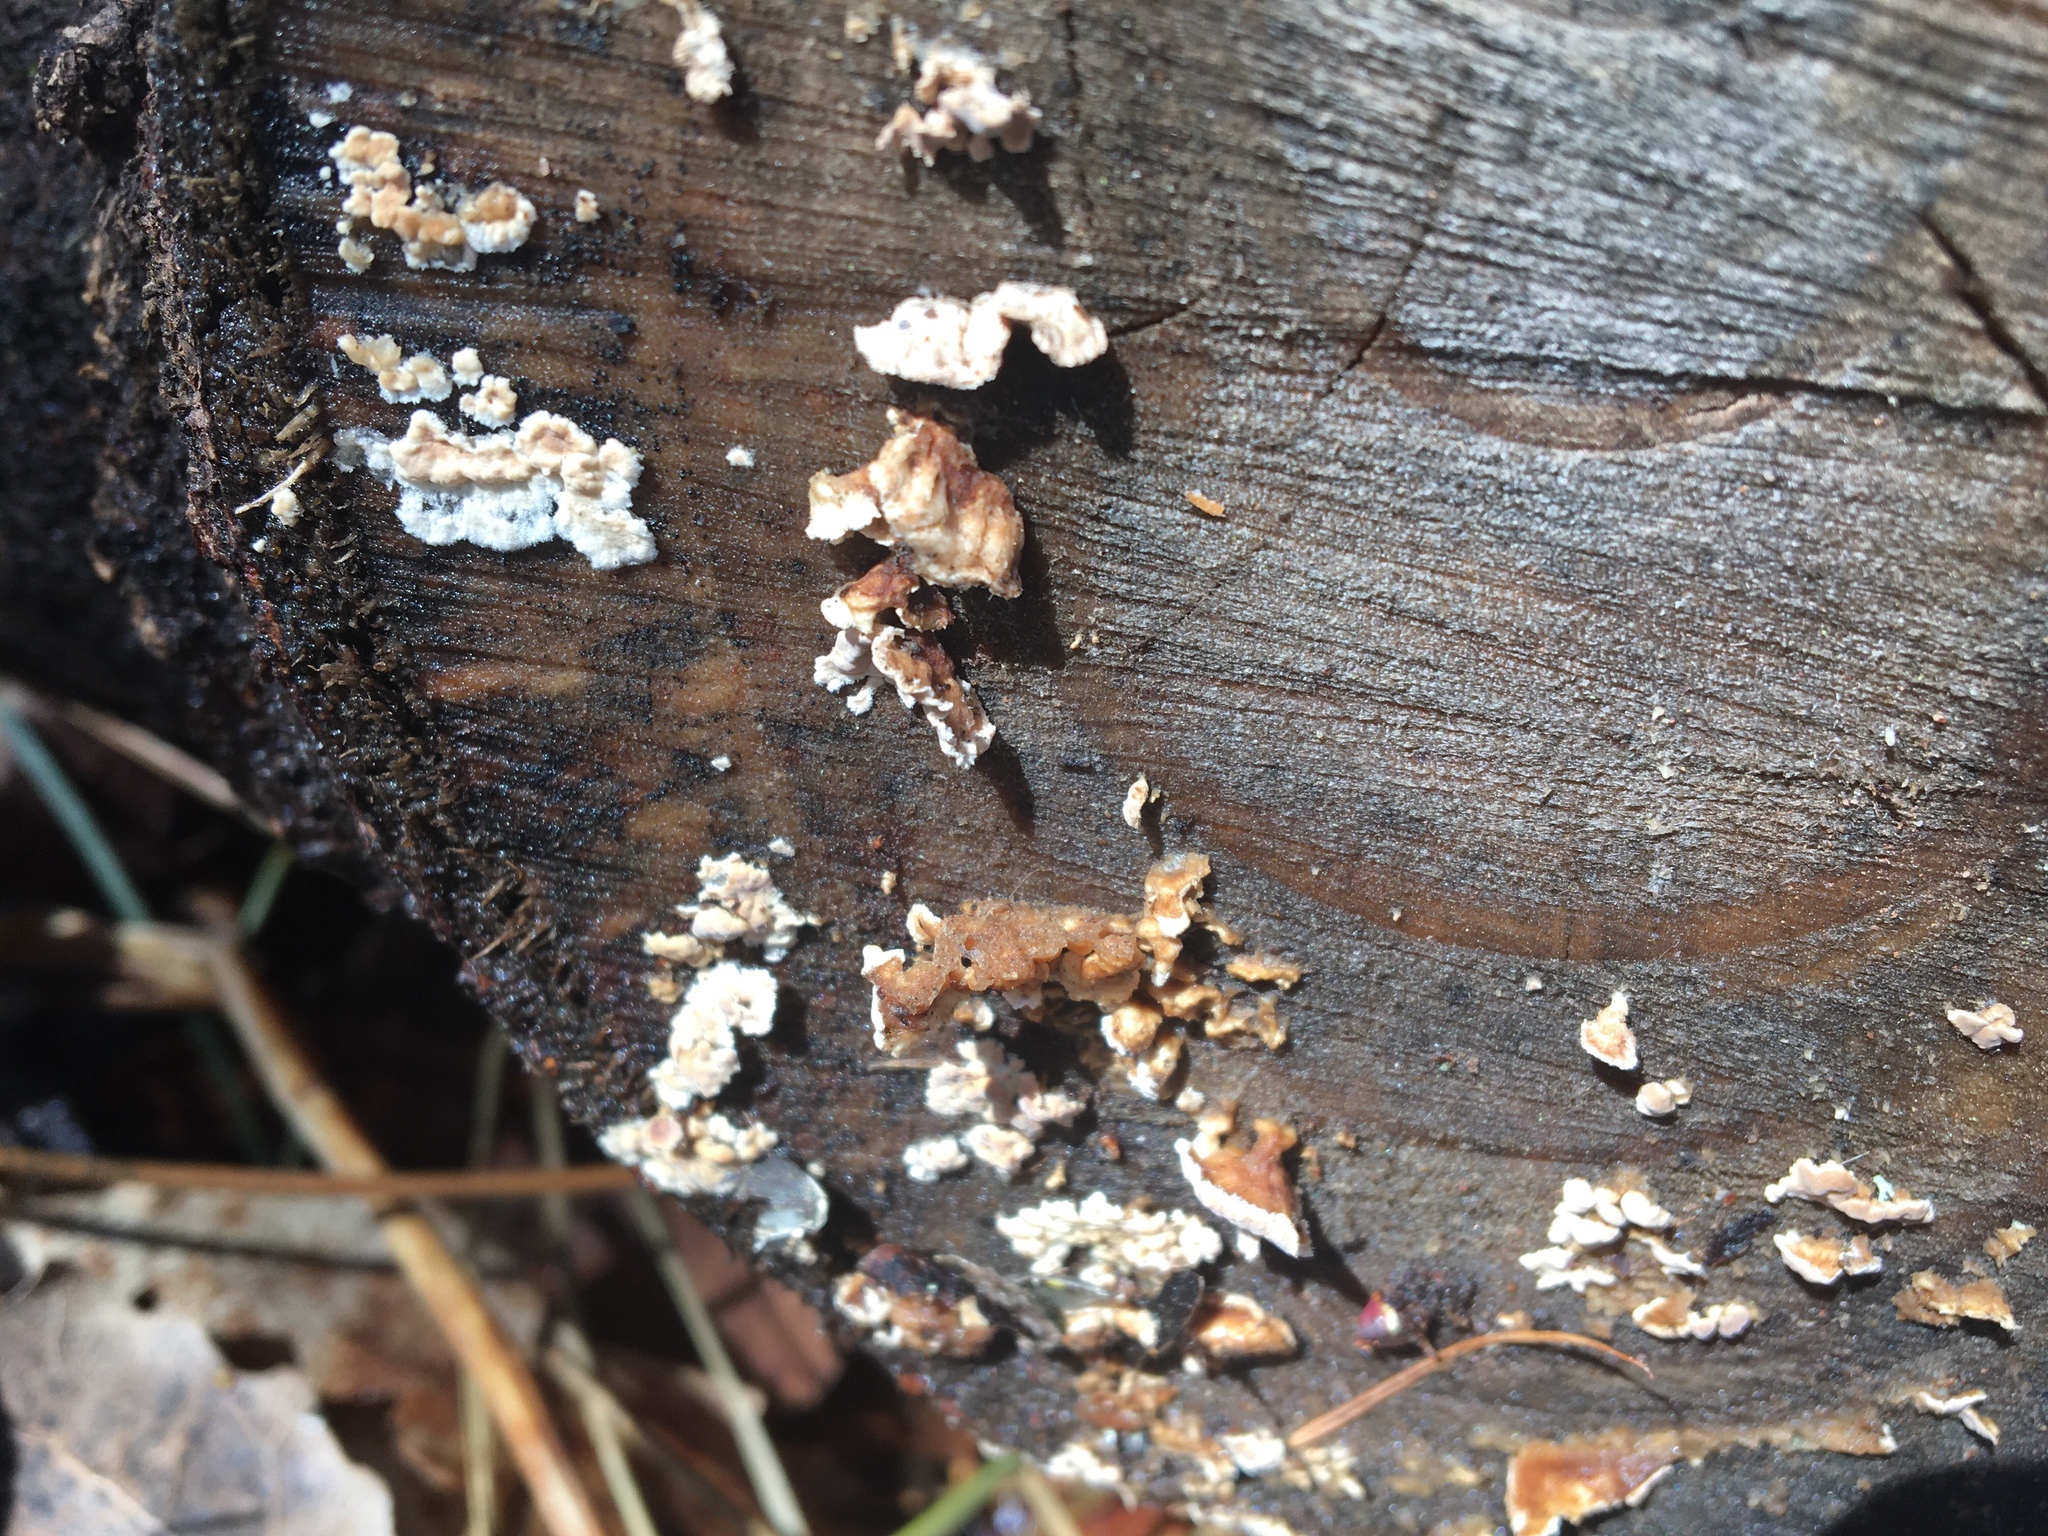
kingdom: Fungi
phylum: Basidiomycota
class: Agaricomycetes
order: Amylocorticiales
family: Amylocorticiaceae
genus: Plicaturopsis
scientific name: Plicaturopsis crispa
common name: Crimped gill
